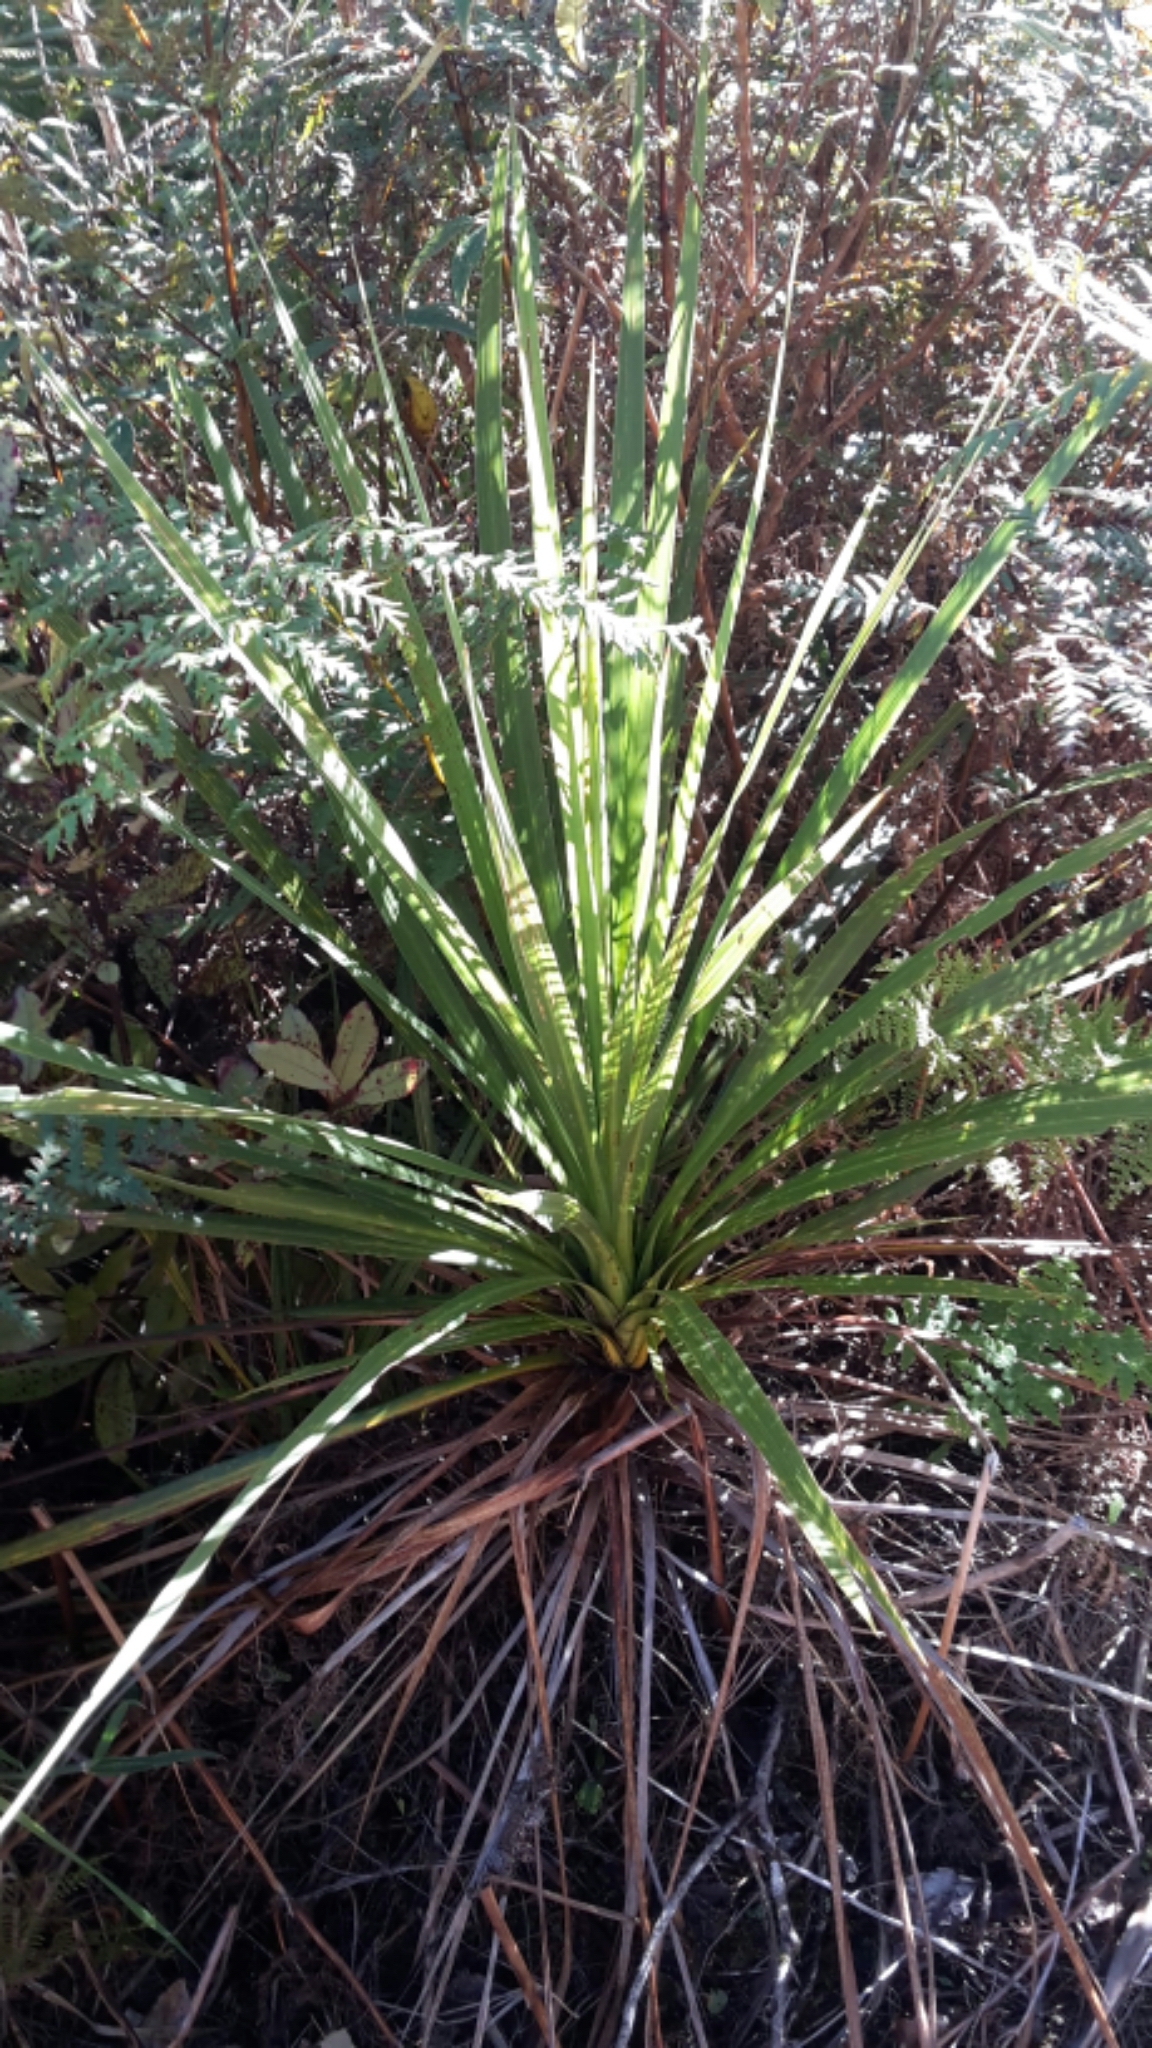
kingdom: Plantae
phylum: Tracheophyta
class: Liliopsida
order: Asparagales
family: Asparagaceae
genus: Cordyline
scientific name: Cordyline australis
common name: Cabbage-palm
